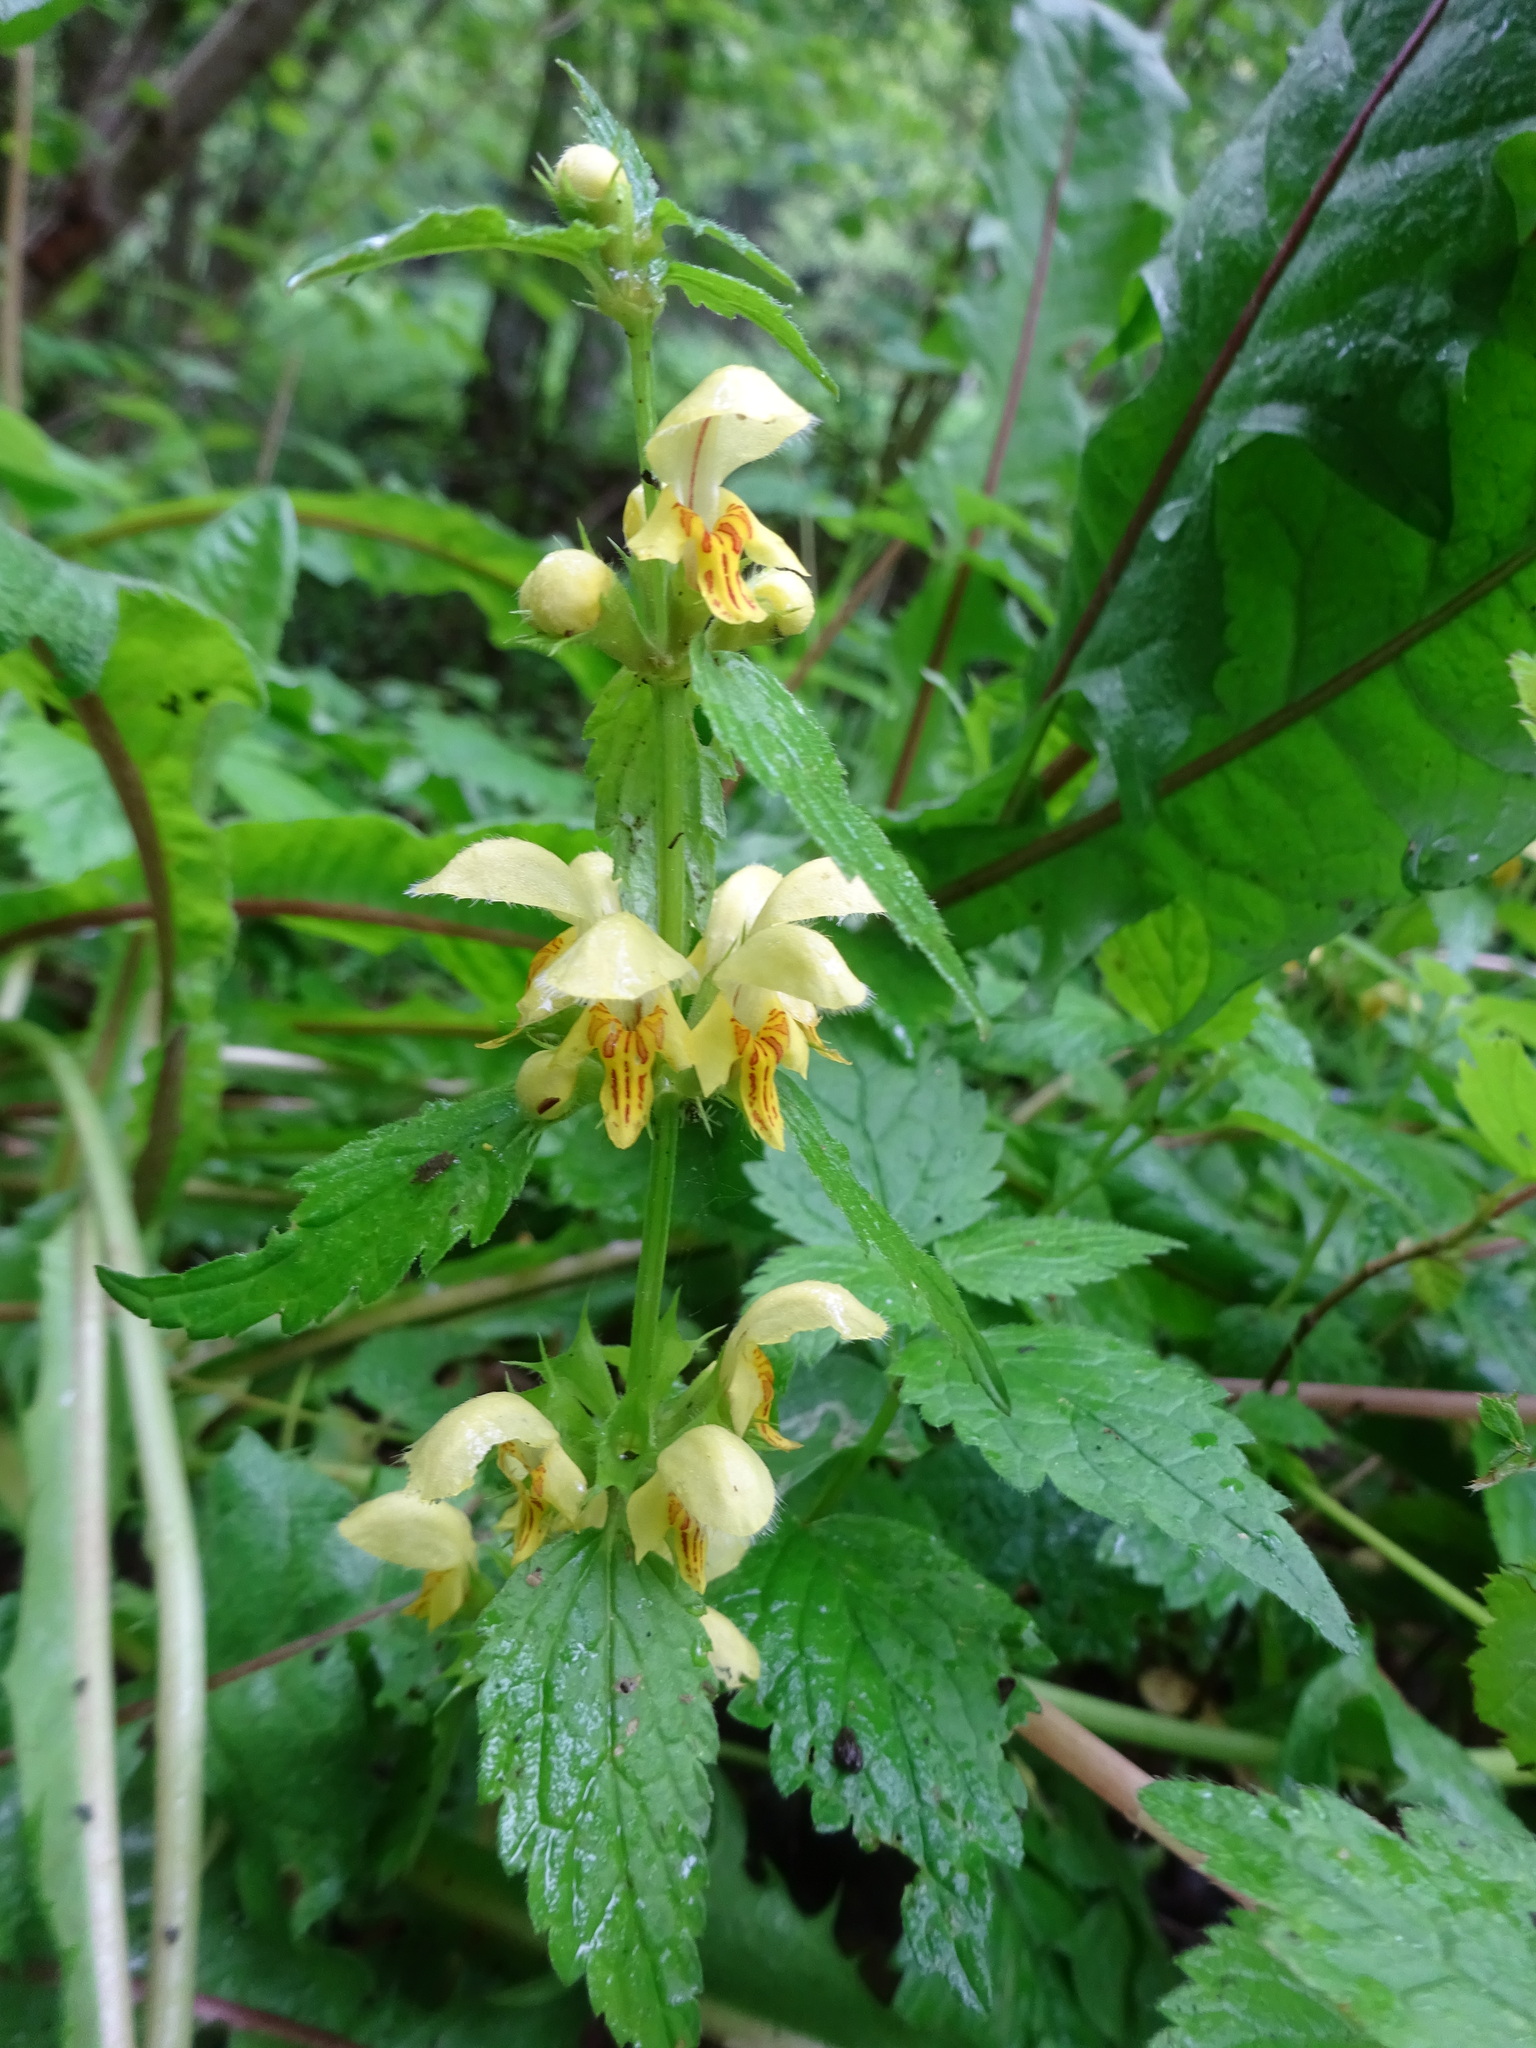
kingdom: Plantae
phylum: Tracheophyta
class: Magnoliopsida
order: Lamiales
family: Lamiaceae
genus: Lamium
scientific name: Lamium galeobdolon
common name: Yellow archangel
